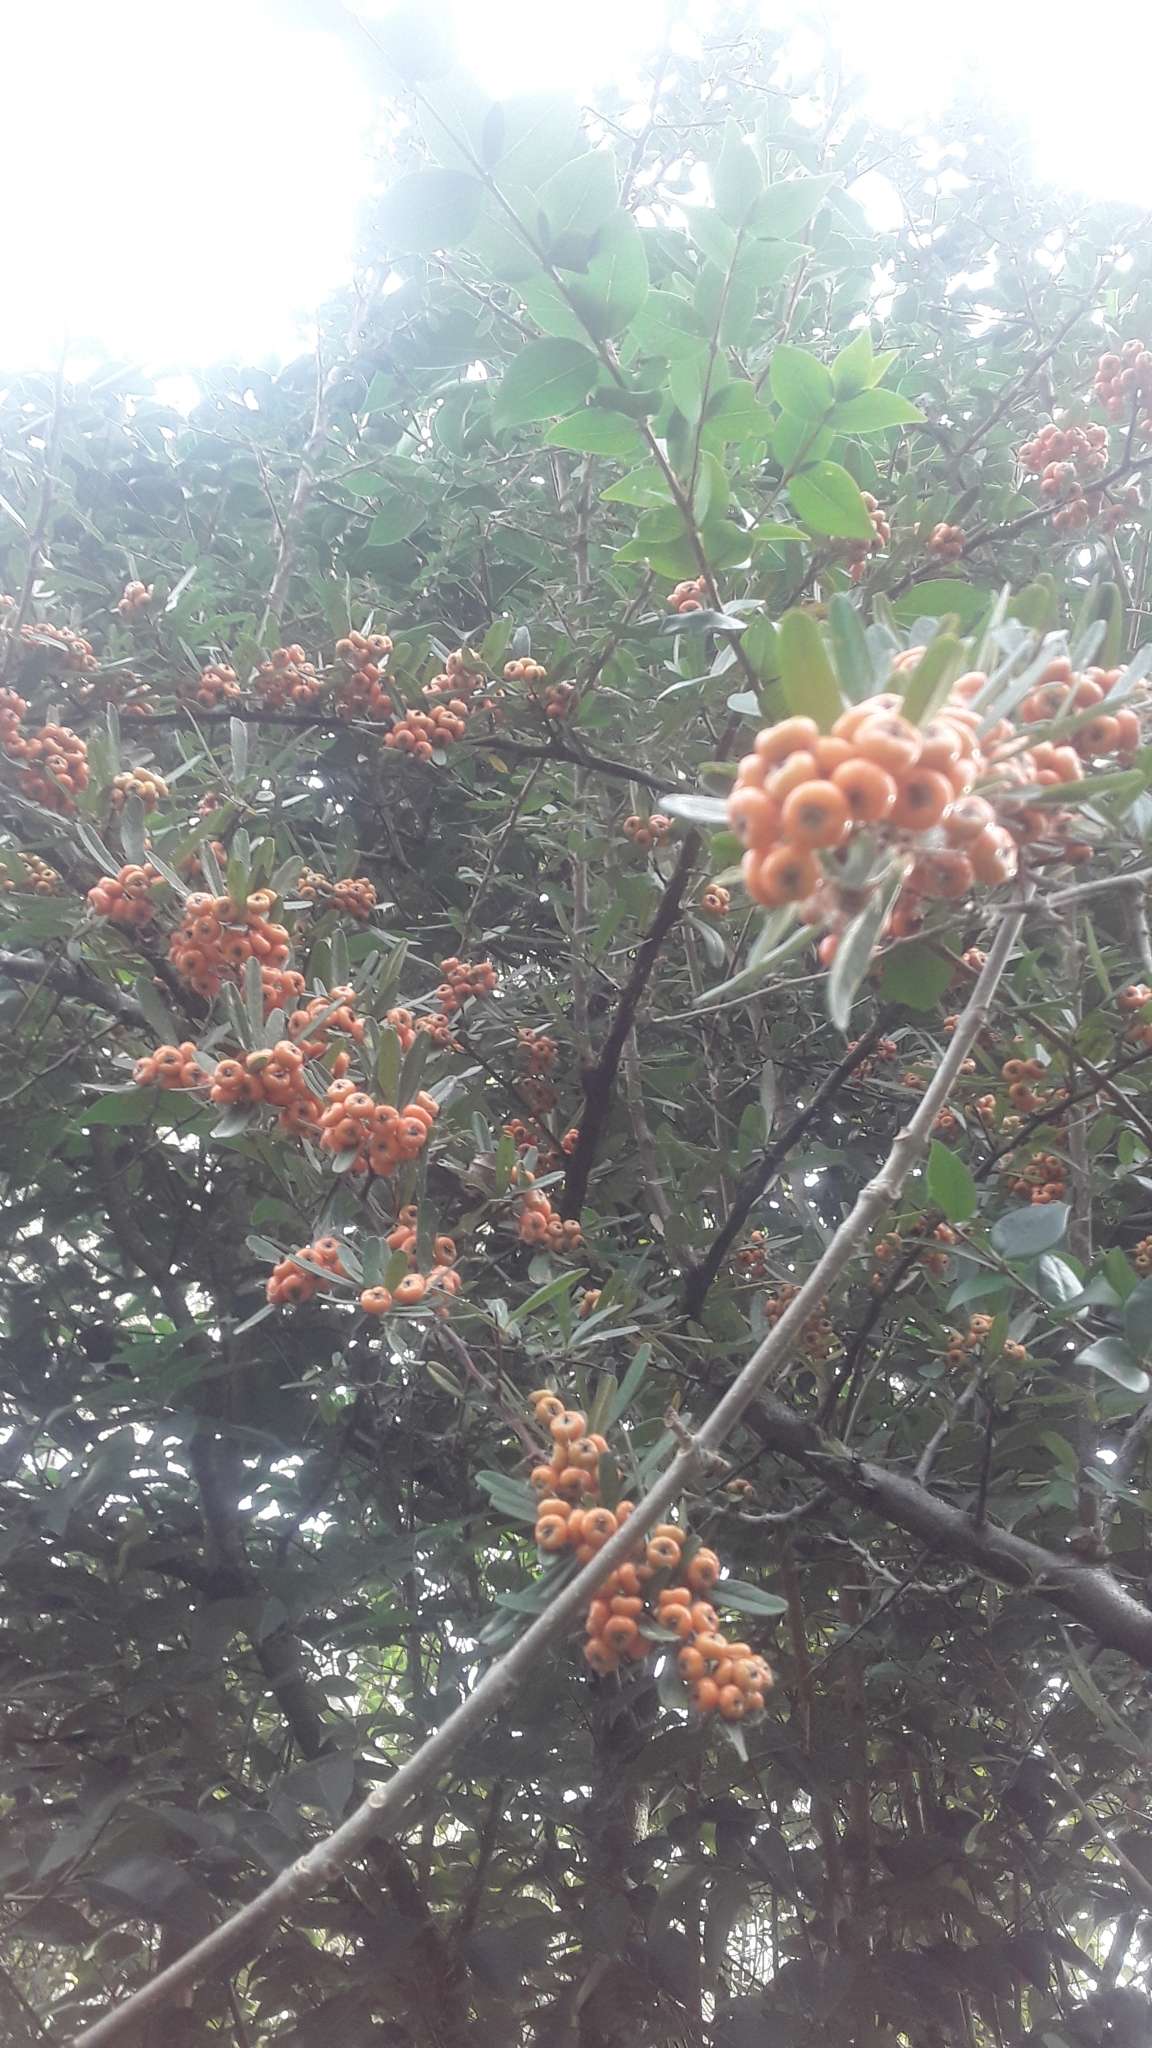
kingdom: Plantae
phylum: Tracheophyta
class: Magnoliopsida
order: Rosales
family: Rosaceae
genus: Pyracantha
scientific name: Pyracantha angustifolia
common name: Narrowleaf firethorn
